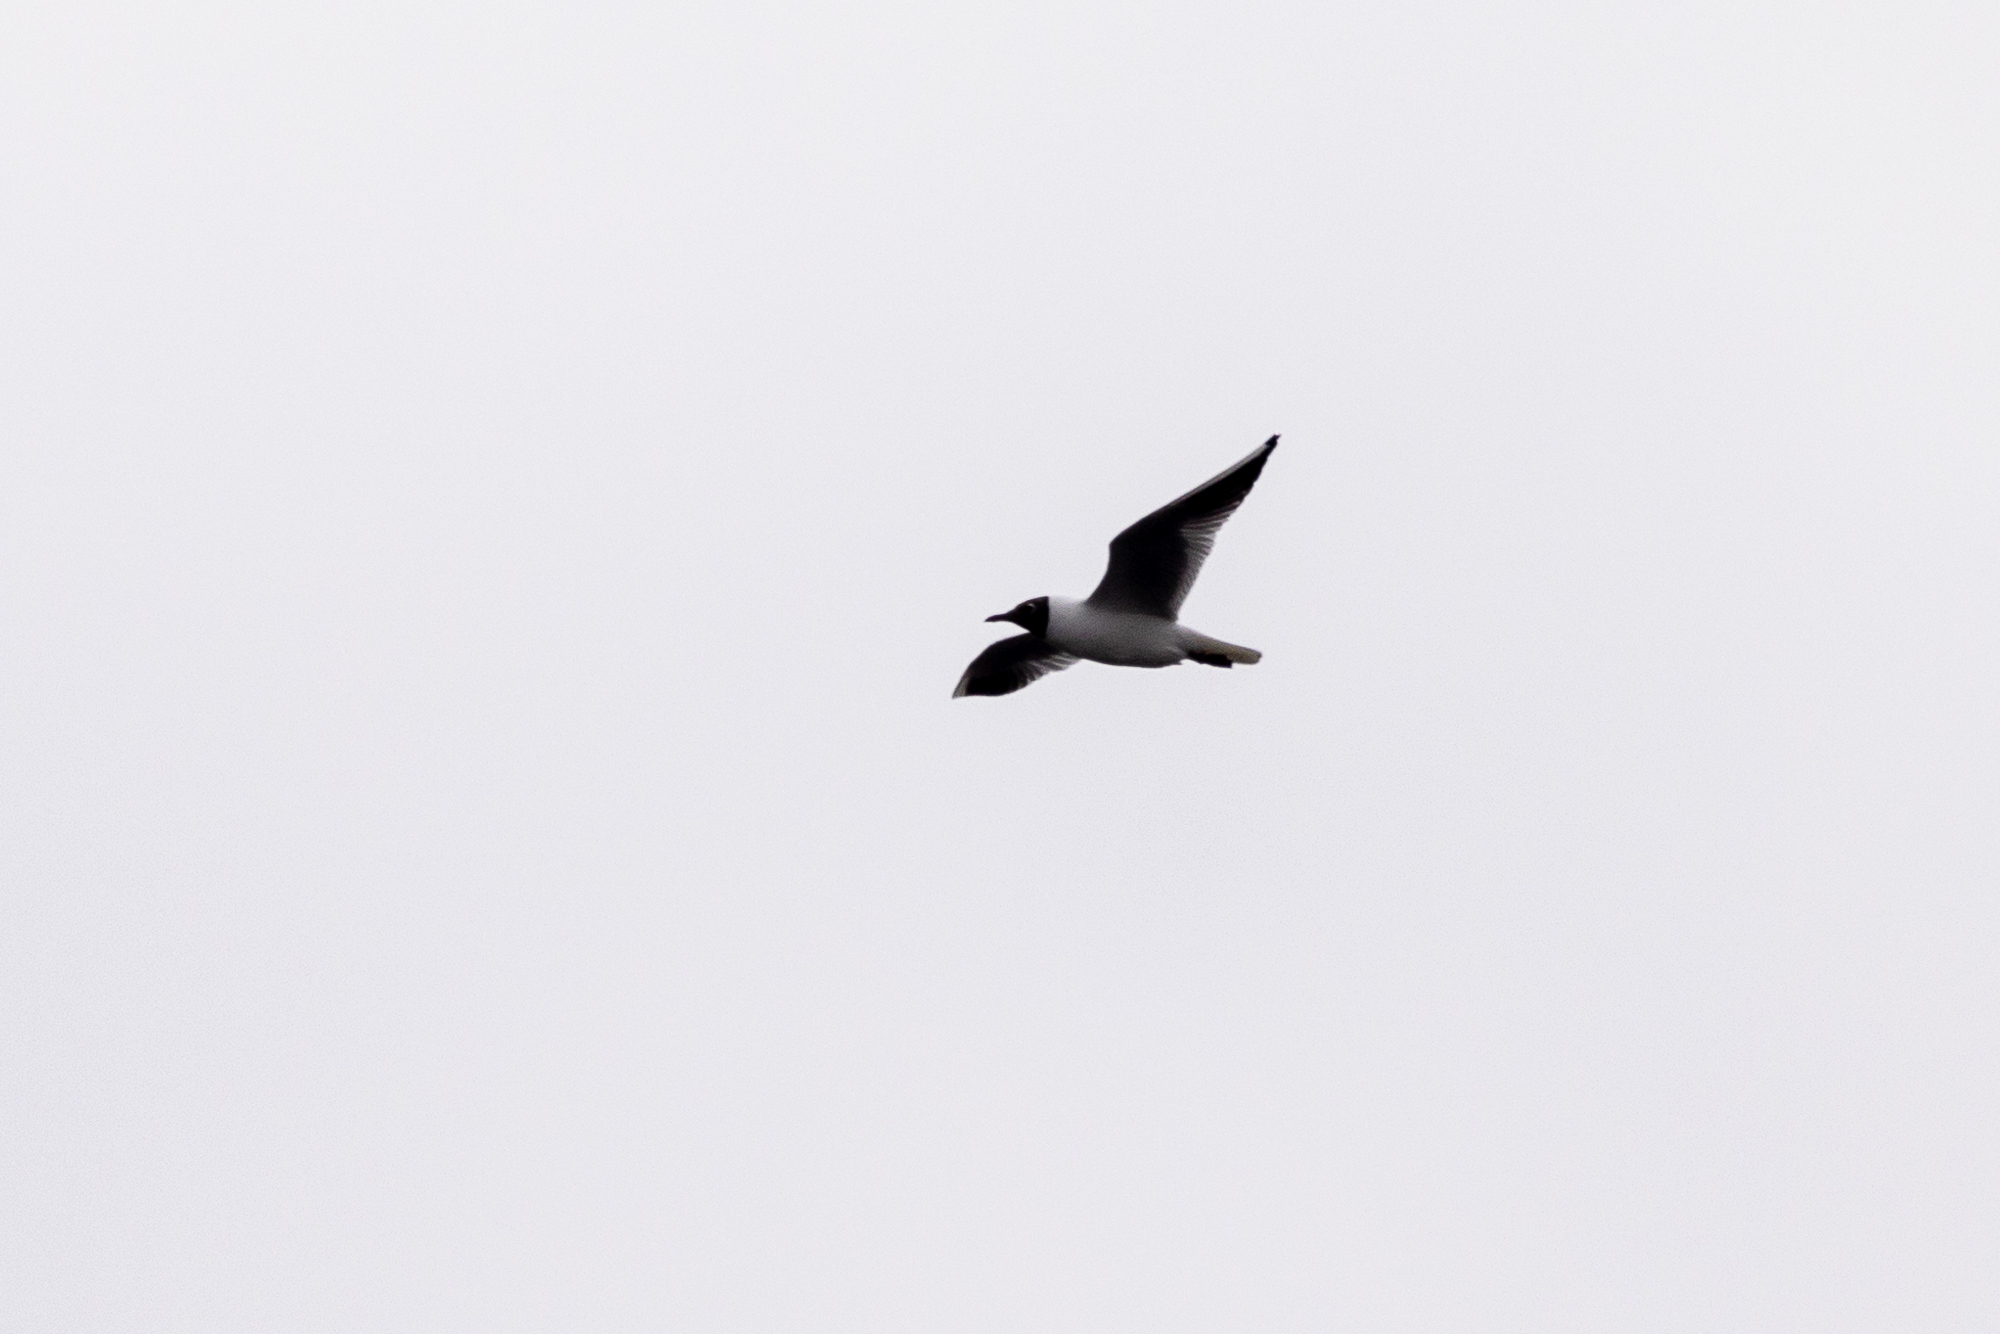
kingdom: Animalia
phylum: Chordata
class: Aves
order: Charadriiformes
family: Laridae
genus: Chroicocephalus
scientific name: Chroicocephalus ridibundus
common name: Black-headed gull
